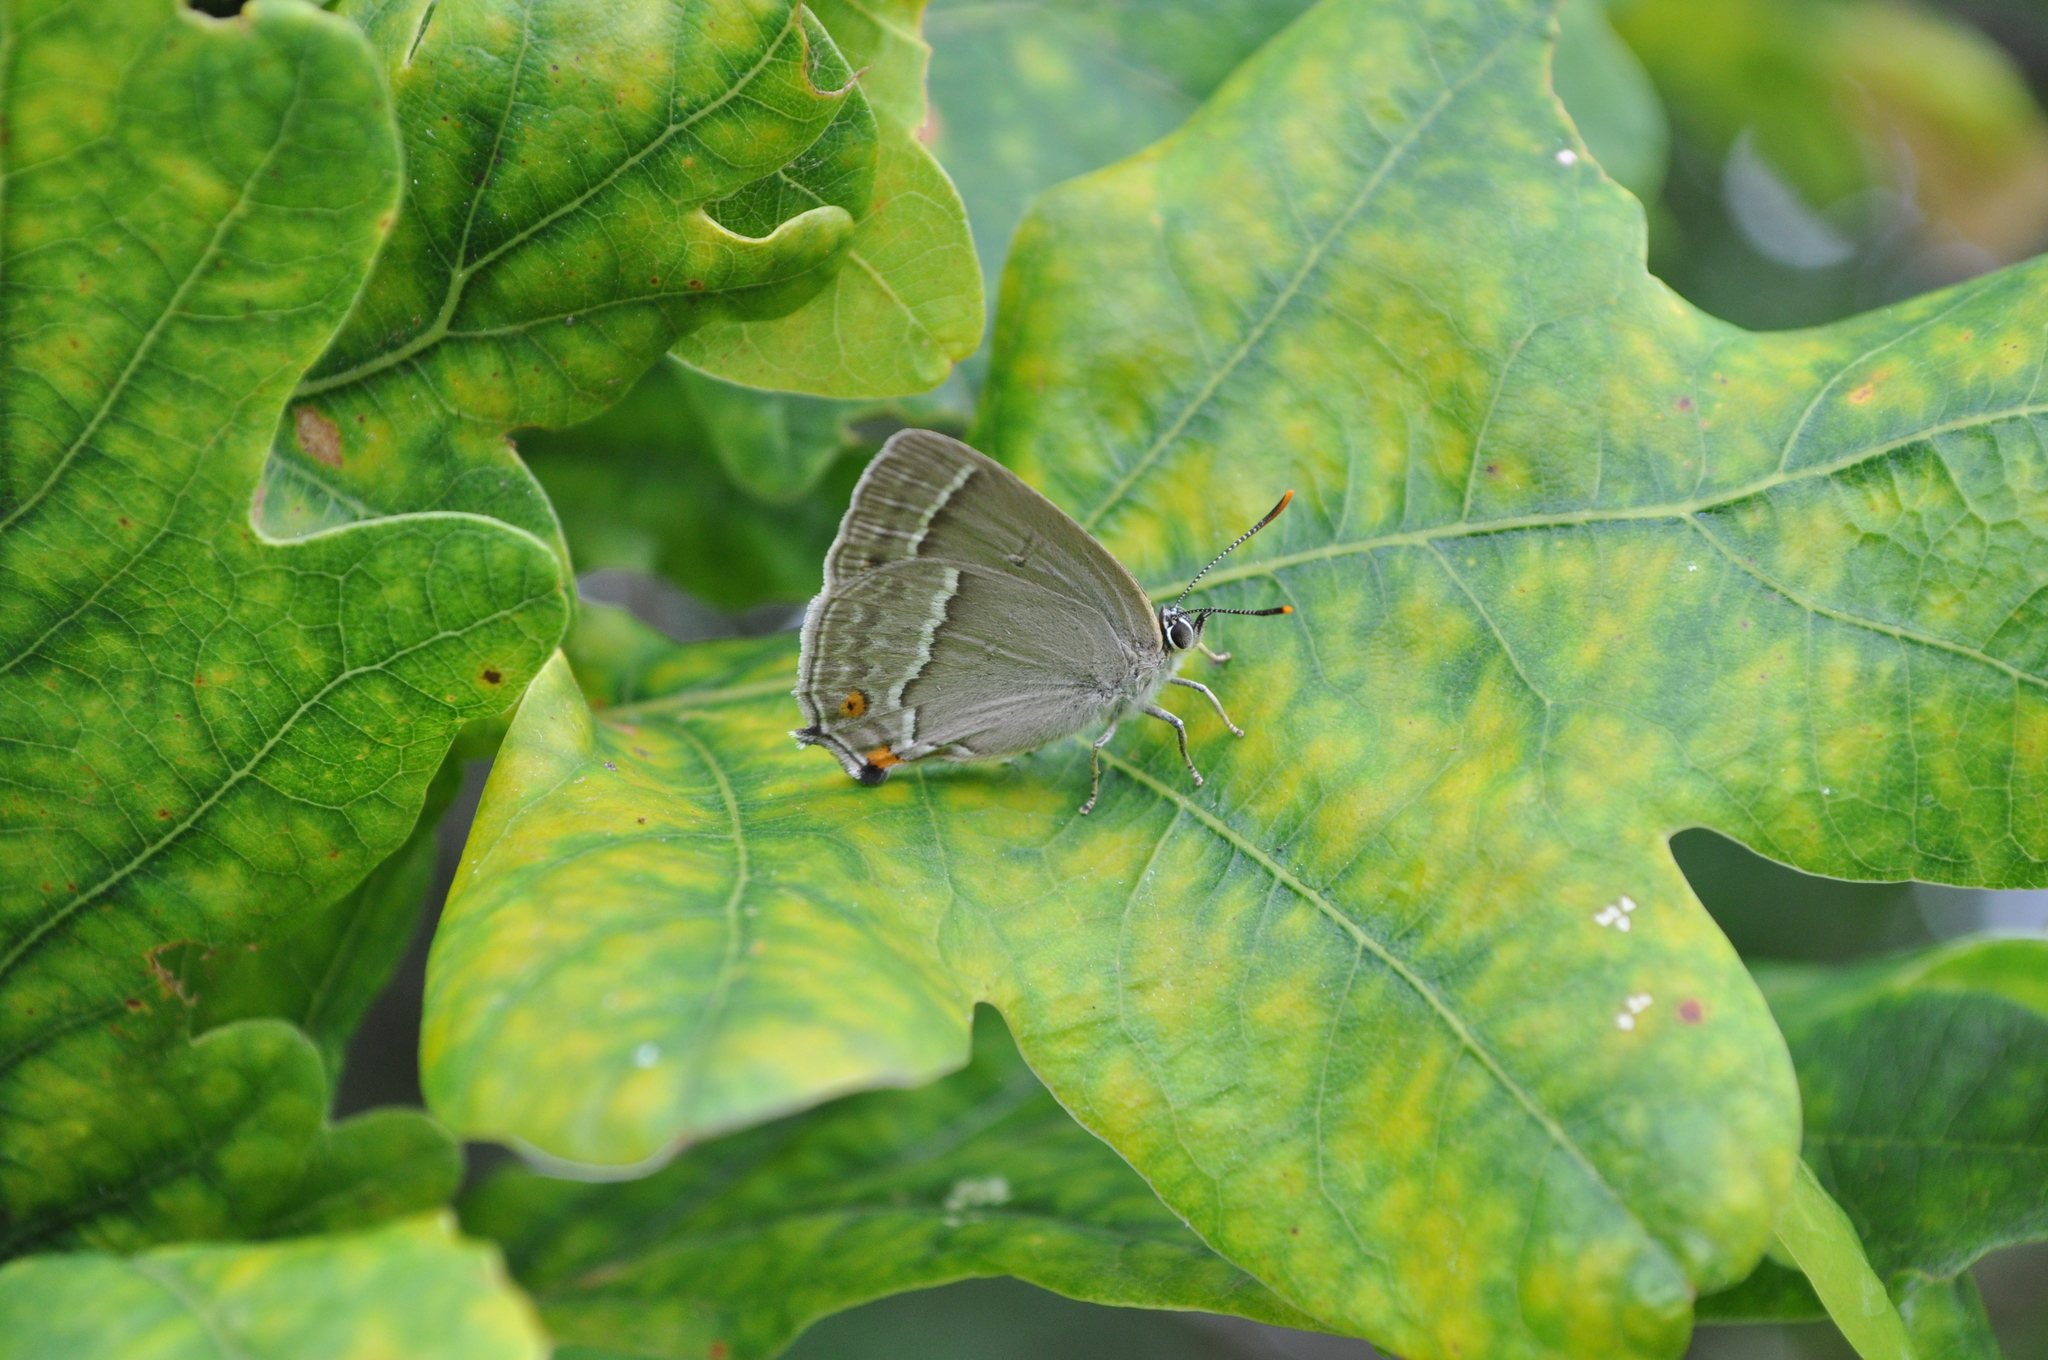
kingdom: Animalia
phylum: Arthropoda
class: Insecta
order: Lepidoptera
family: Lycaenidae
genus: Quercusia
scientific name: Quercusia quercus
